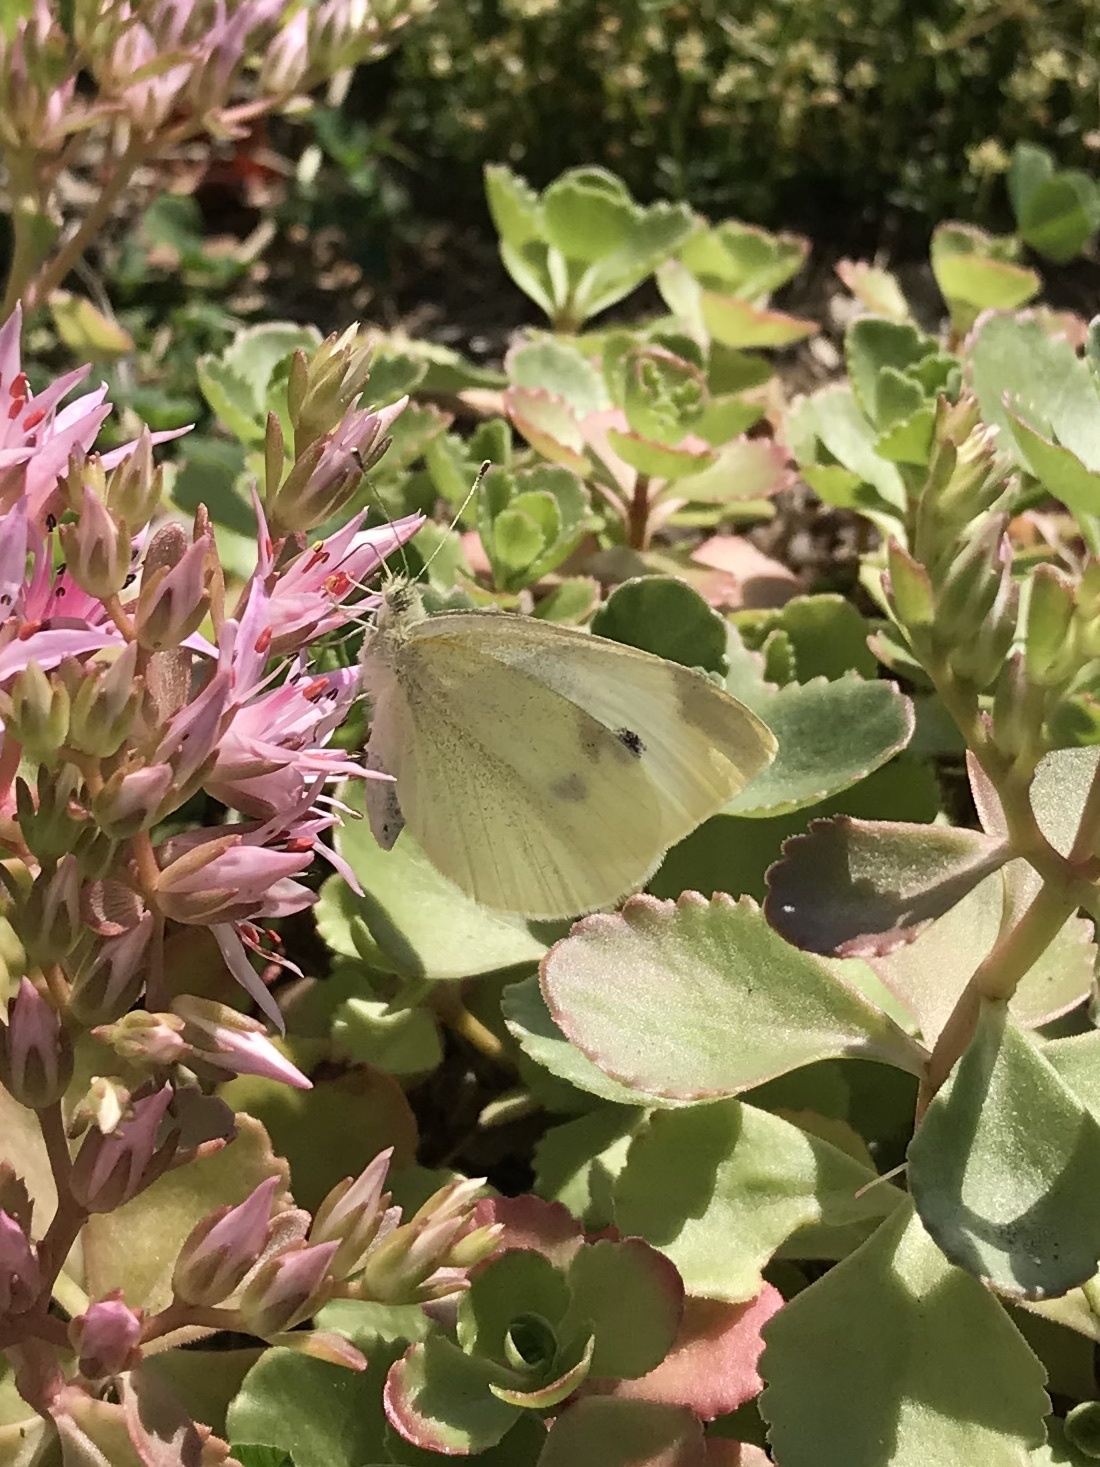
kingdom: Animalia
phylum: Arthropoda
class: Insecta
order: Lepidoptera
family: Pieridae
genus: Pieris
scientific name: Pieris rapae
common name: Small white
